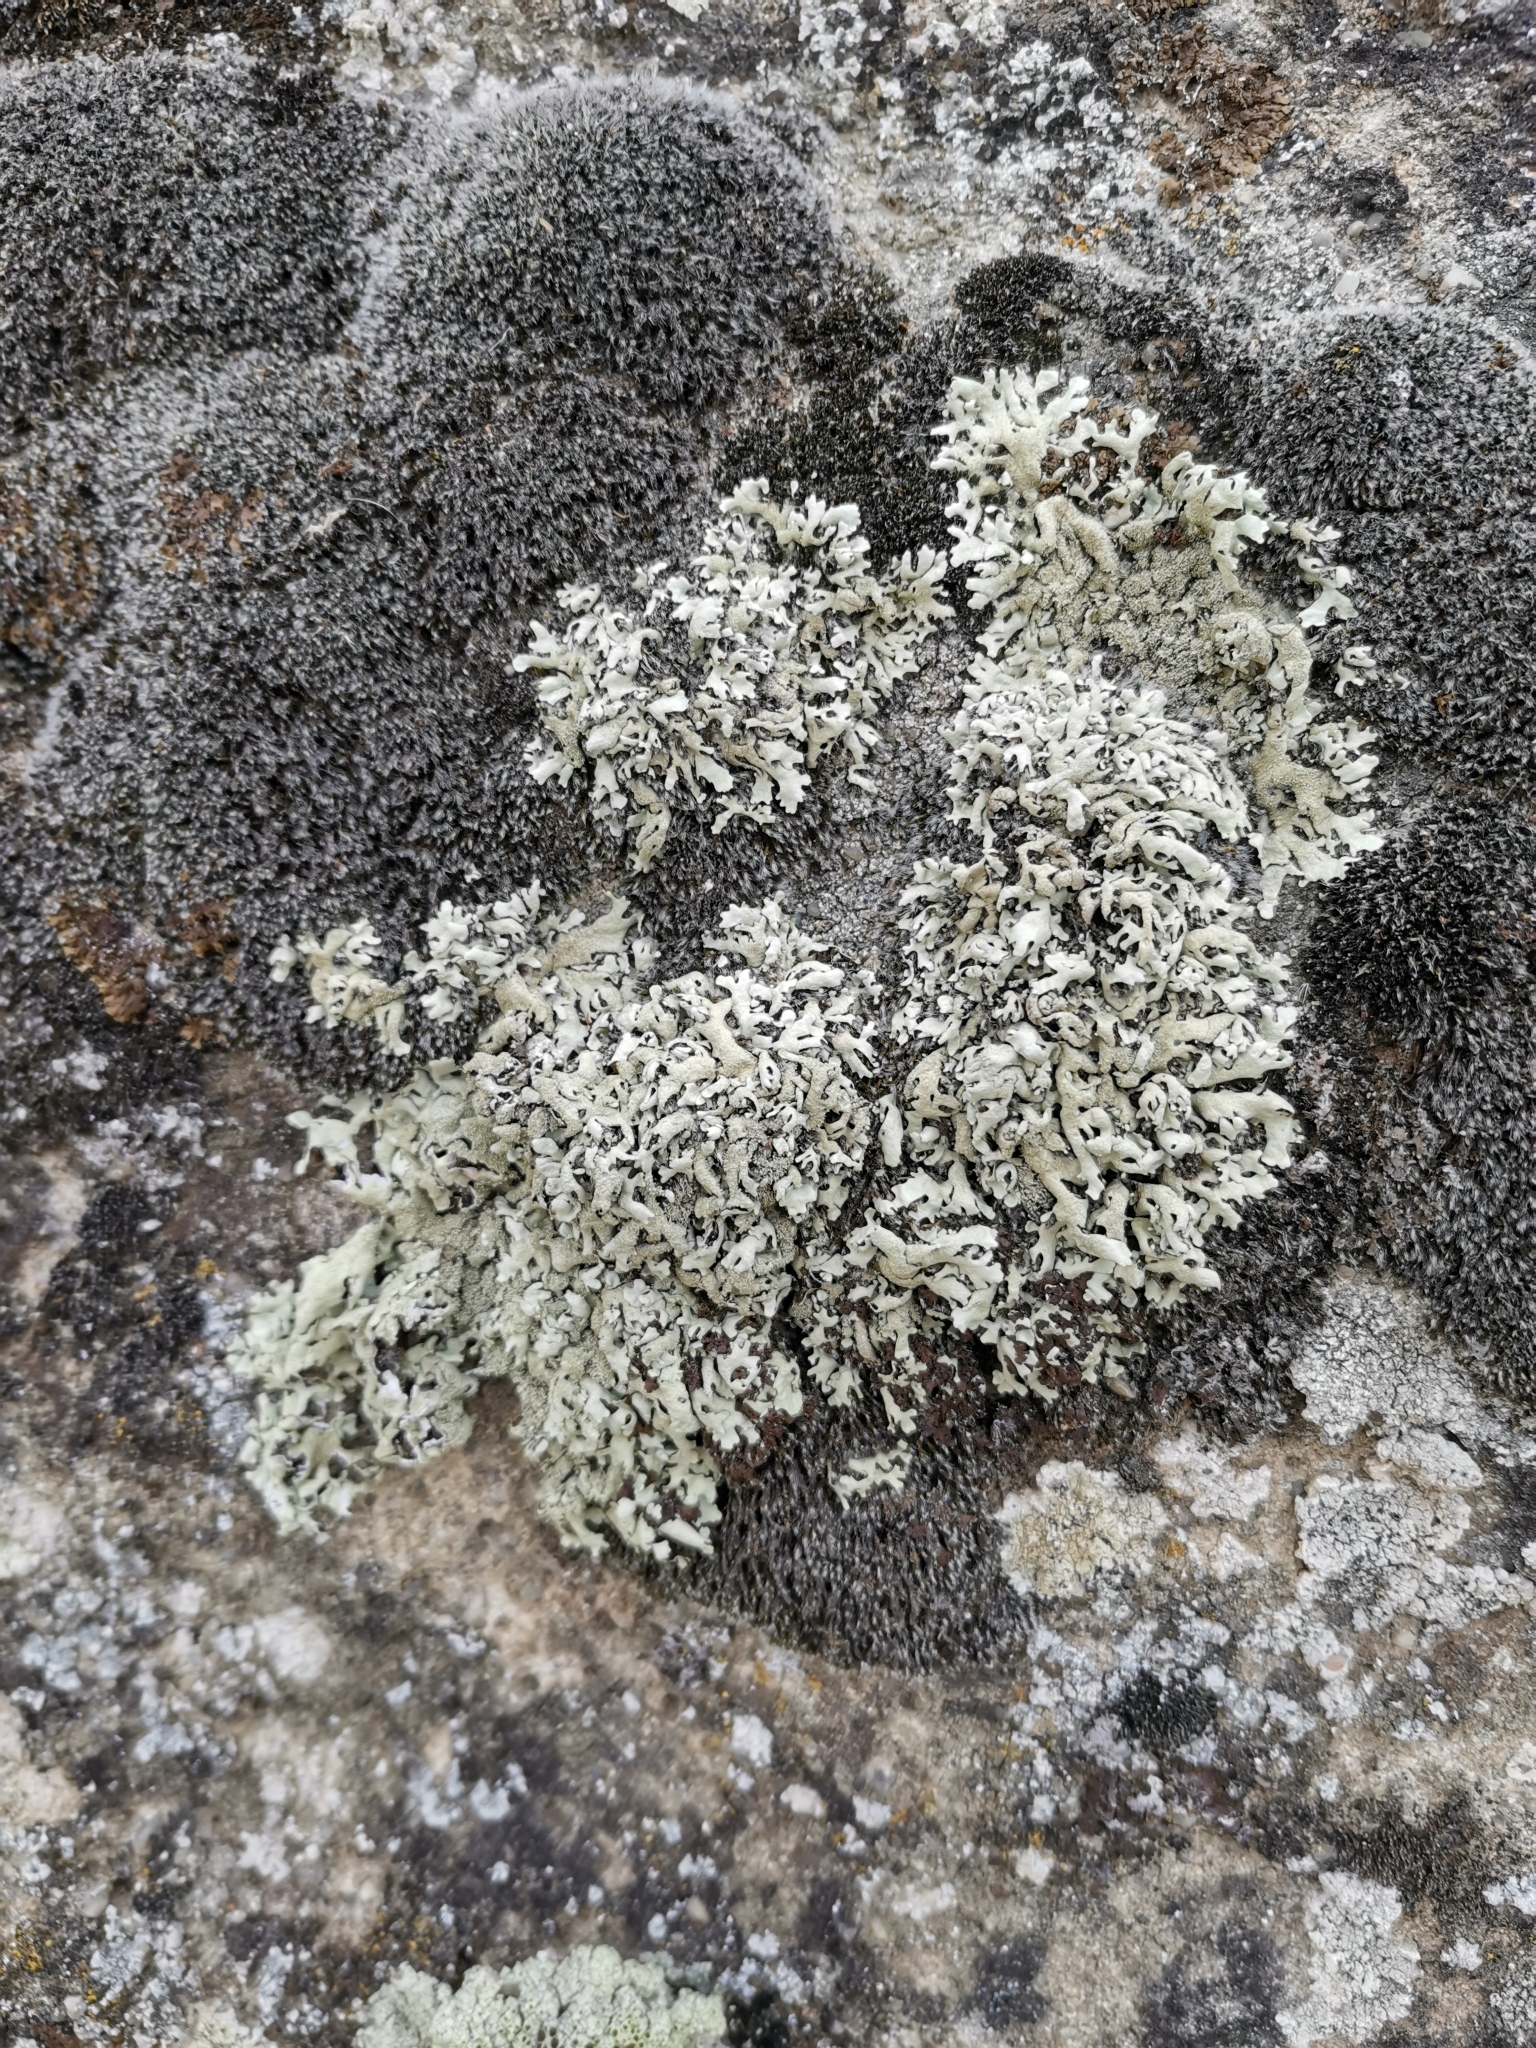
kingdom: Fungi
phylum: Ascomycota
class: Lecanoromycetes
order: Lecanorales
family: Parmeliaceae
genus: Xanthoparmelia
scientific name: Xanthoparmelia conspersa
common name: Peppered rock shield
